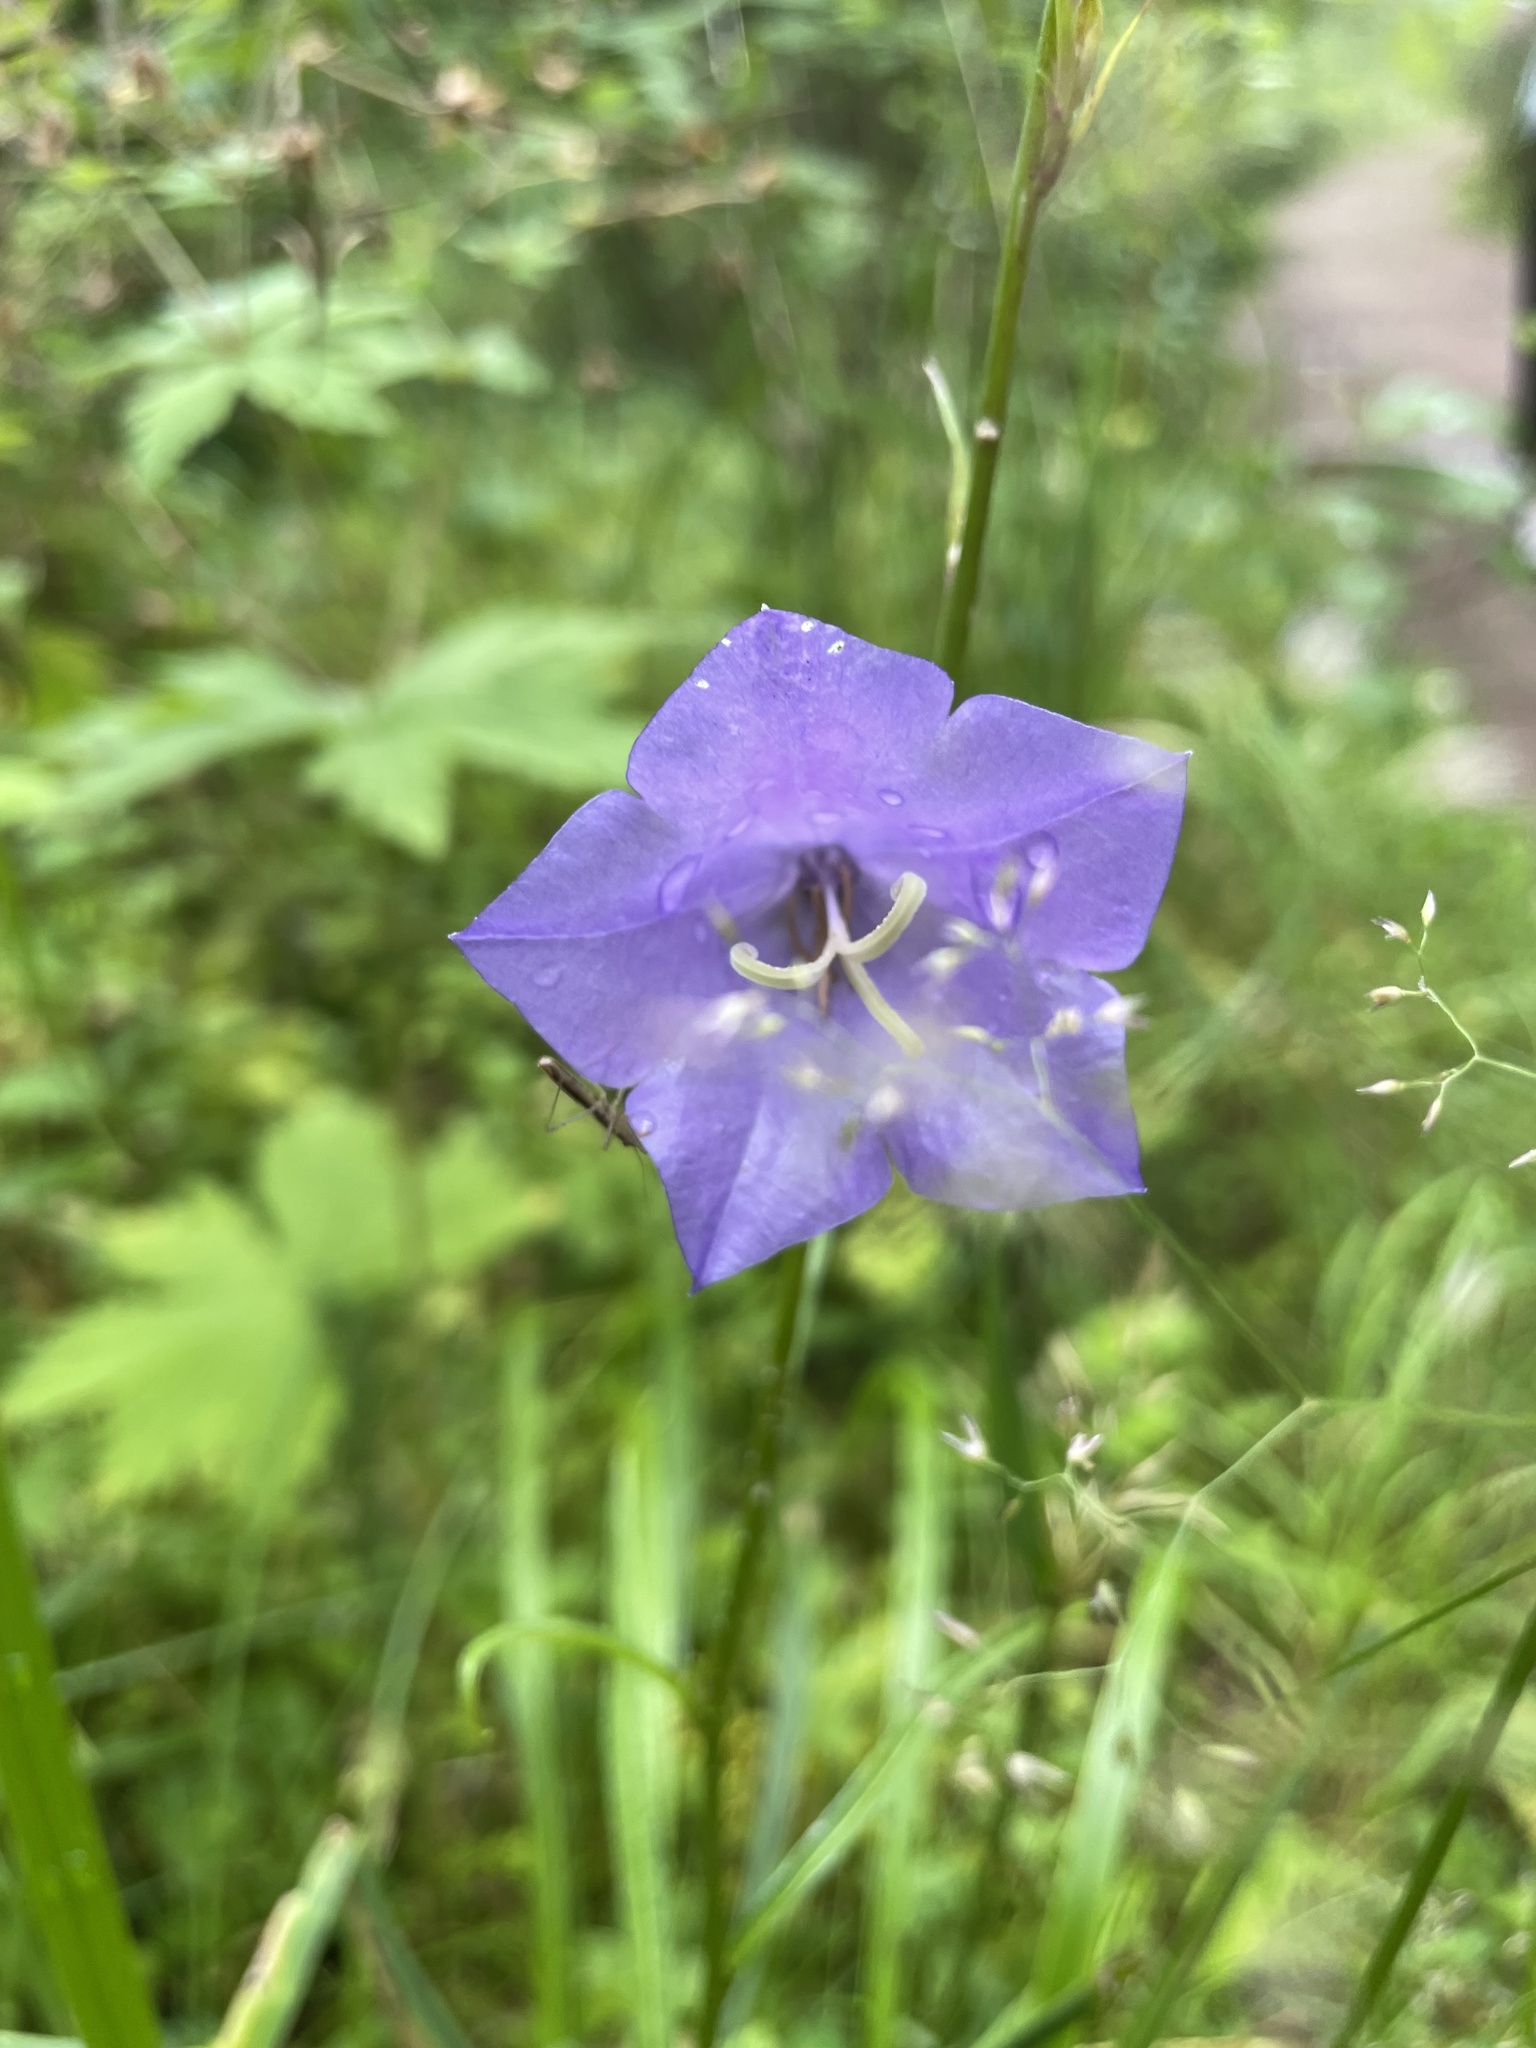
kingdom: Plantae
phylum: Tracheophyta
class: Magnoliopsida
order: Asterales
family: Campanulaceae
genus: Campanula
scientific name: Campanula persicifolia
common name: Peach-leaved bellflower
